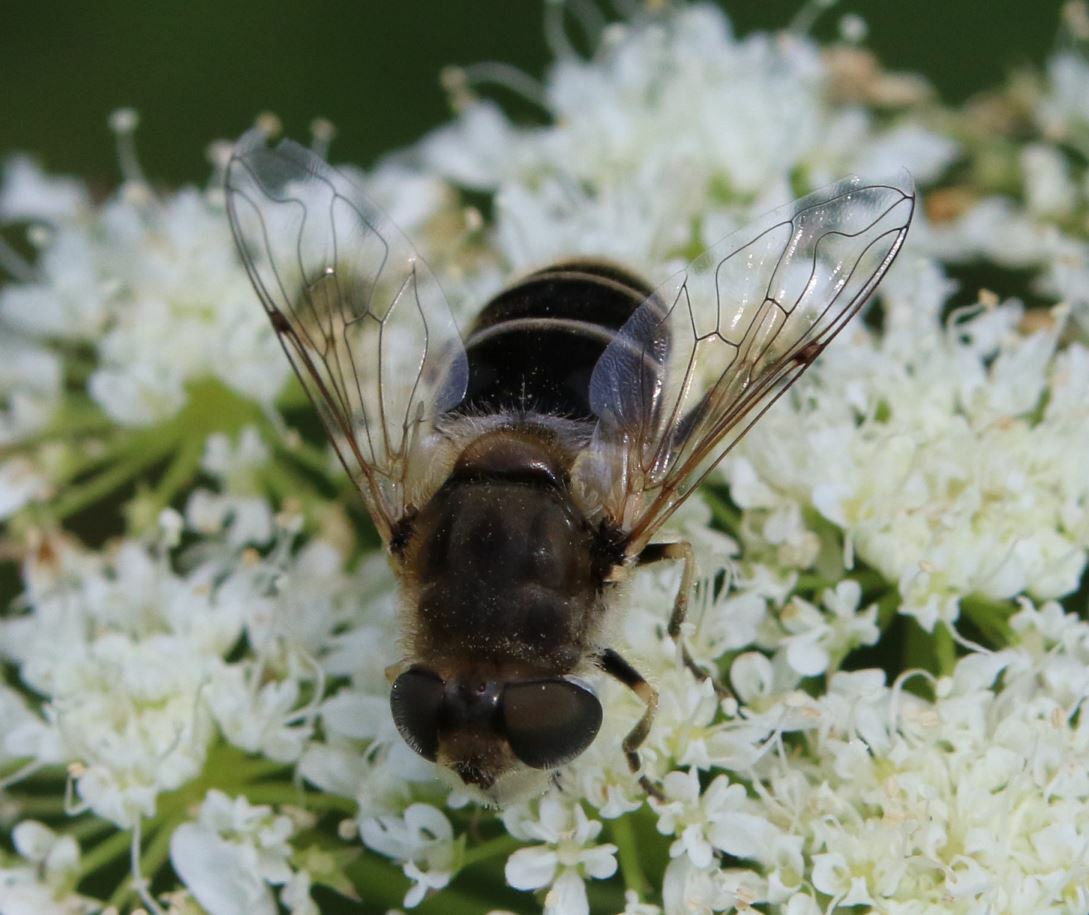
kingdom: Animalia
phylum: Arthropoda
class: Insecta
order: Diptera
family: Syrphidae
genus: Eristalis
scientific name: Eristalis arbustorum
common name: Hover fly
